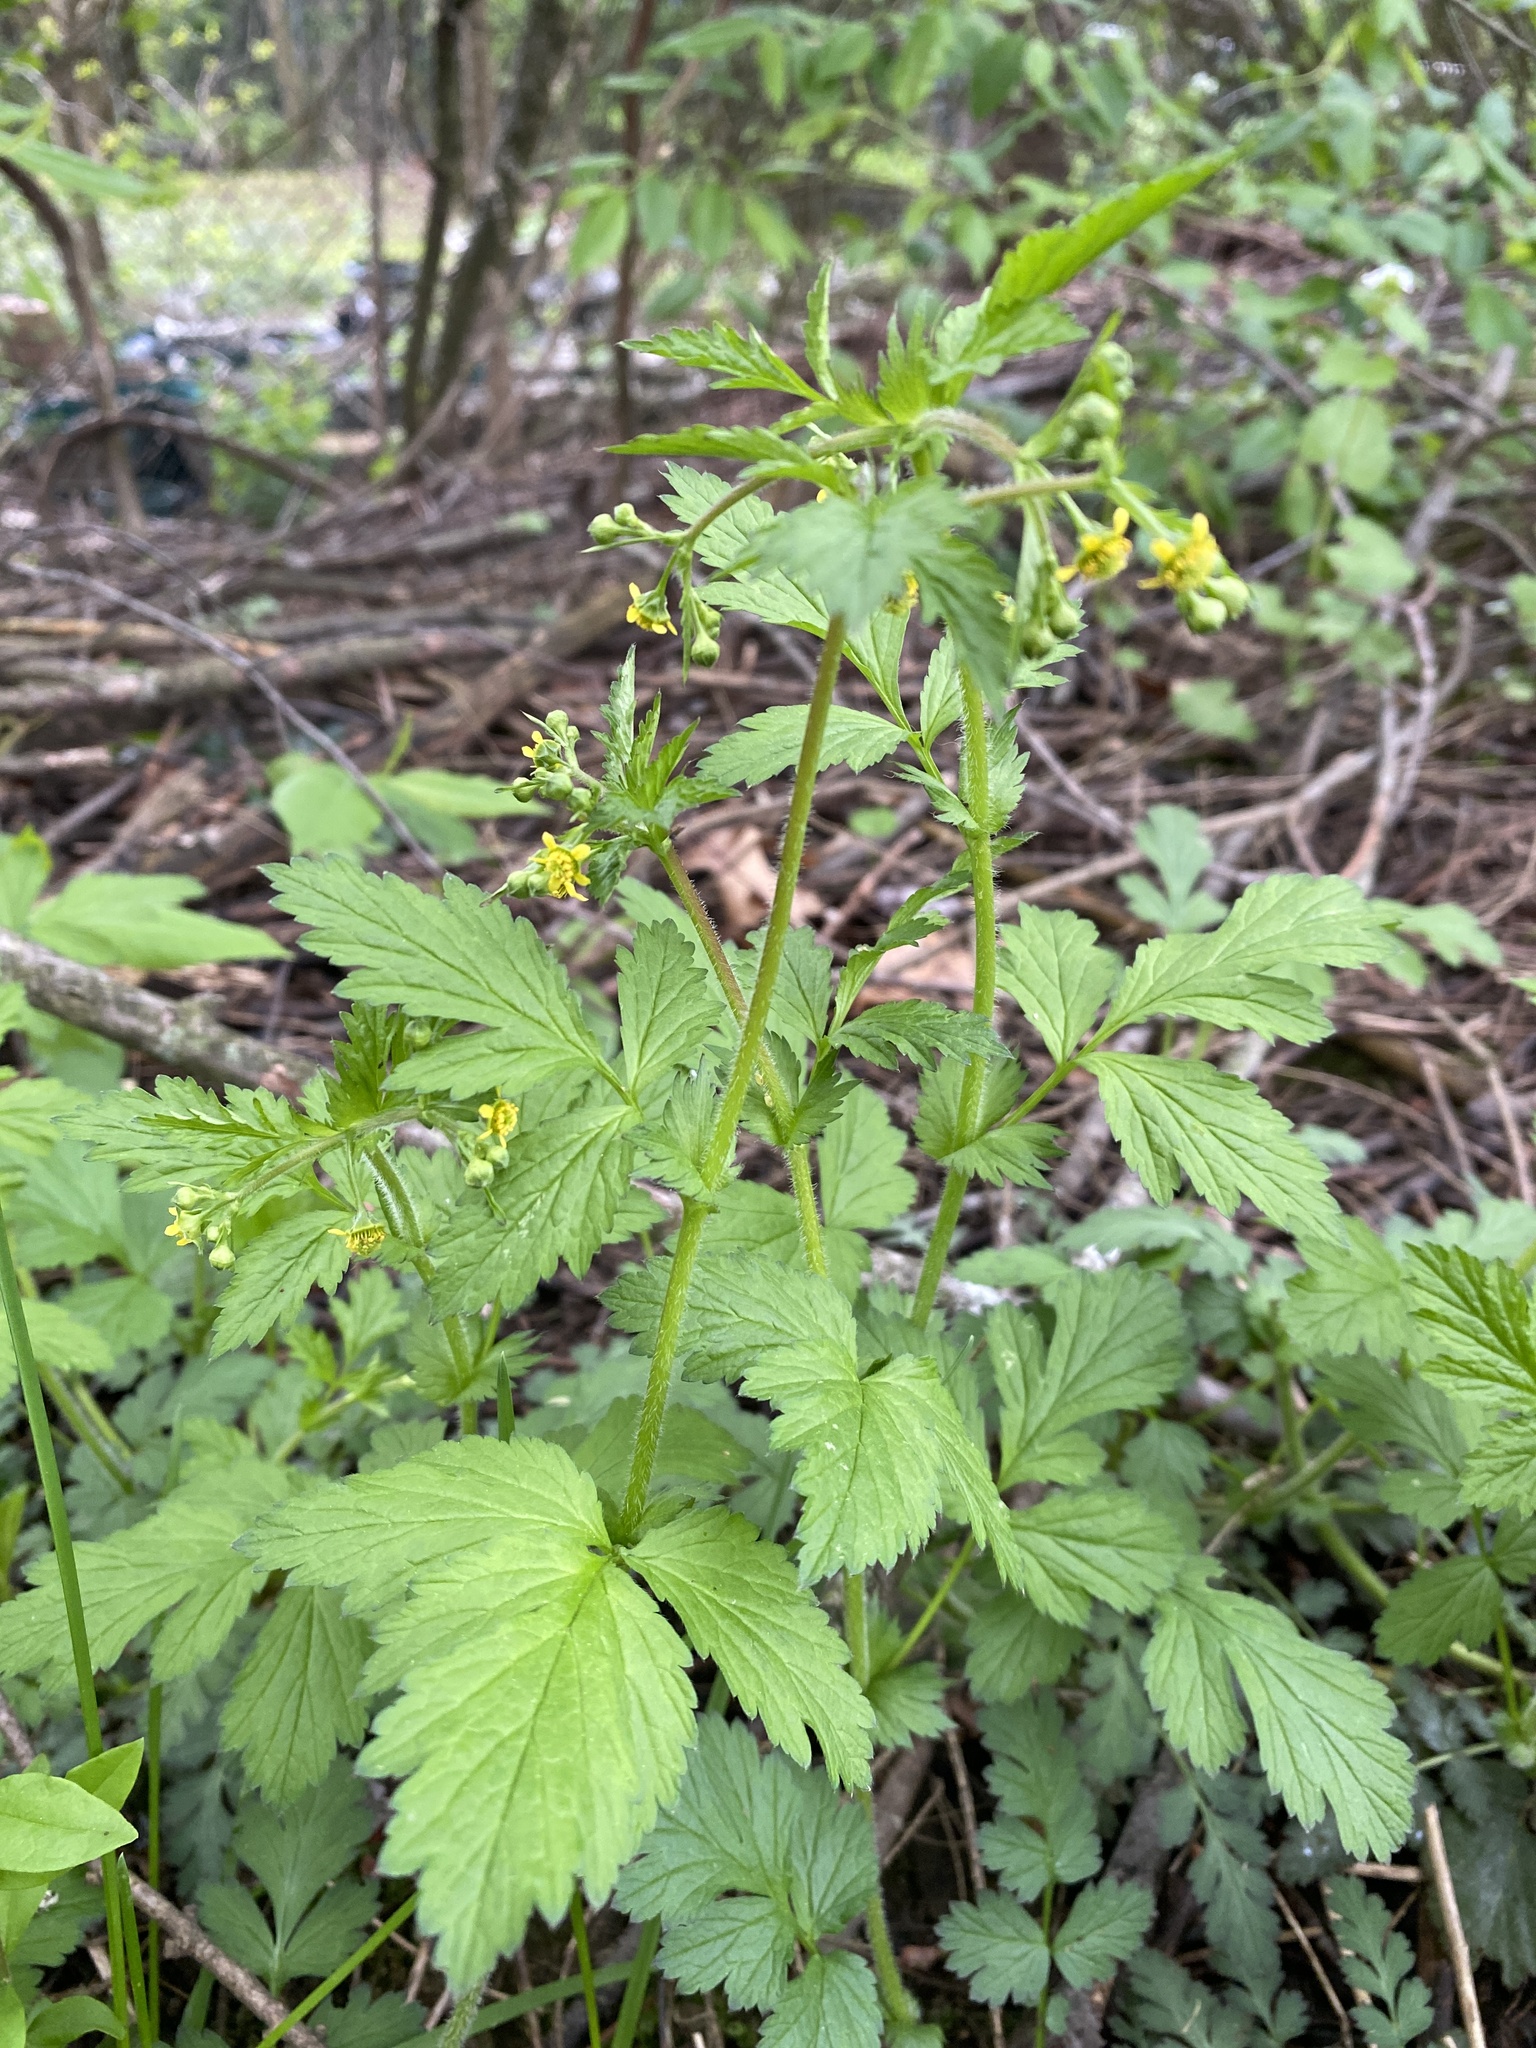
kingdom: Plantae
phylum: Tracheophyta
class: Magnoliopsida
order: Rosales
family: Rosaceae
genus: Geum
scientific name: Geum vernum
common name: Spring avens
